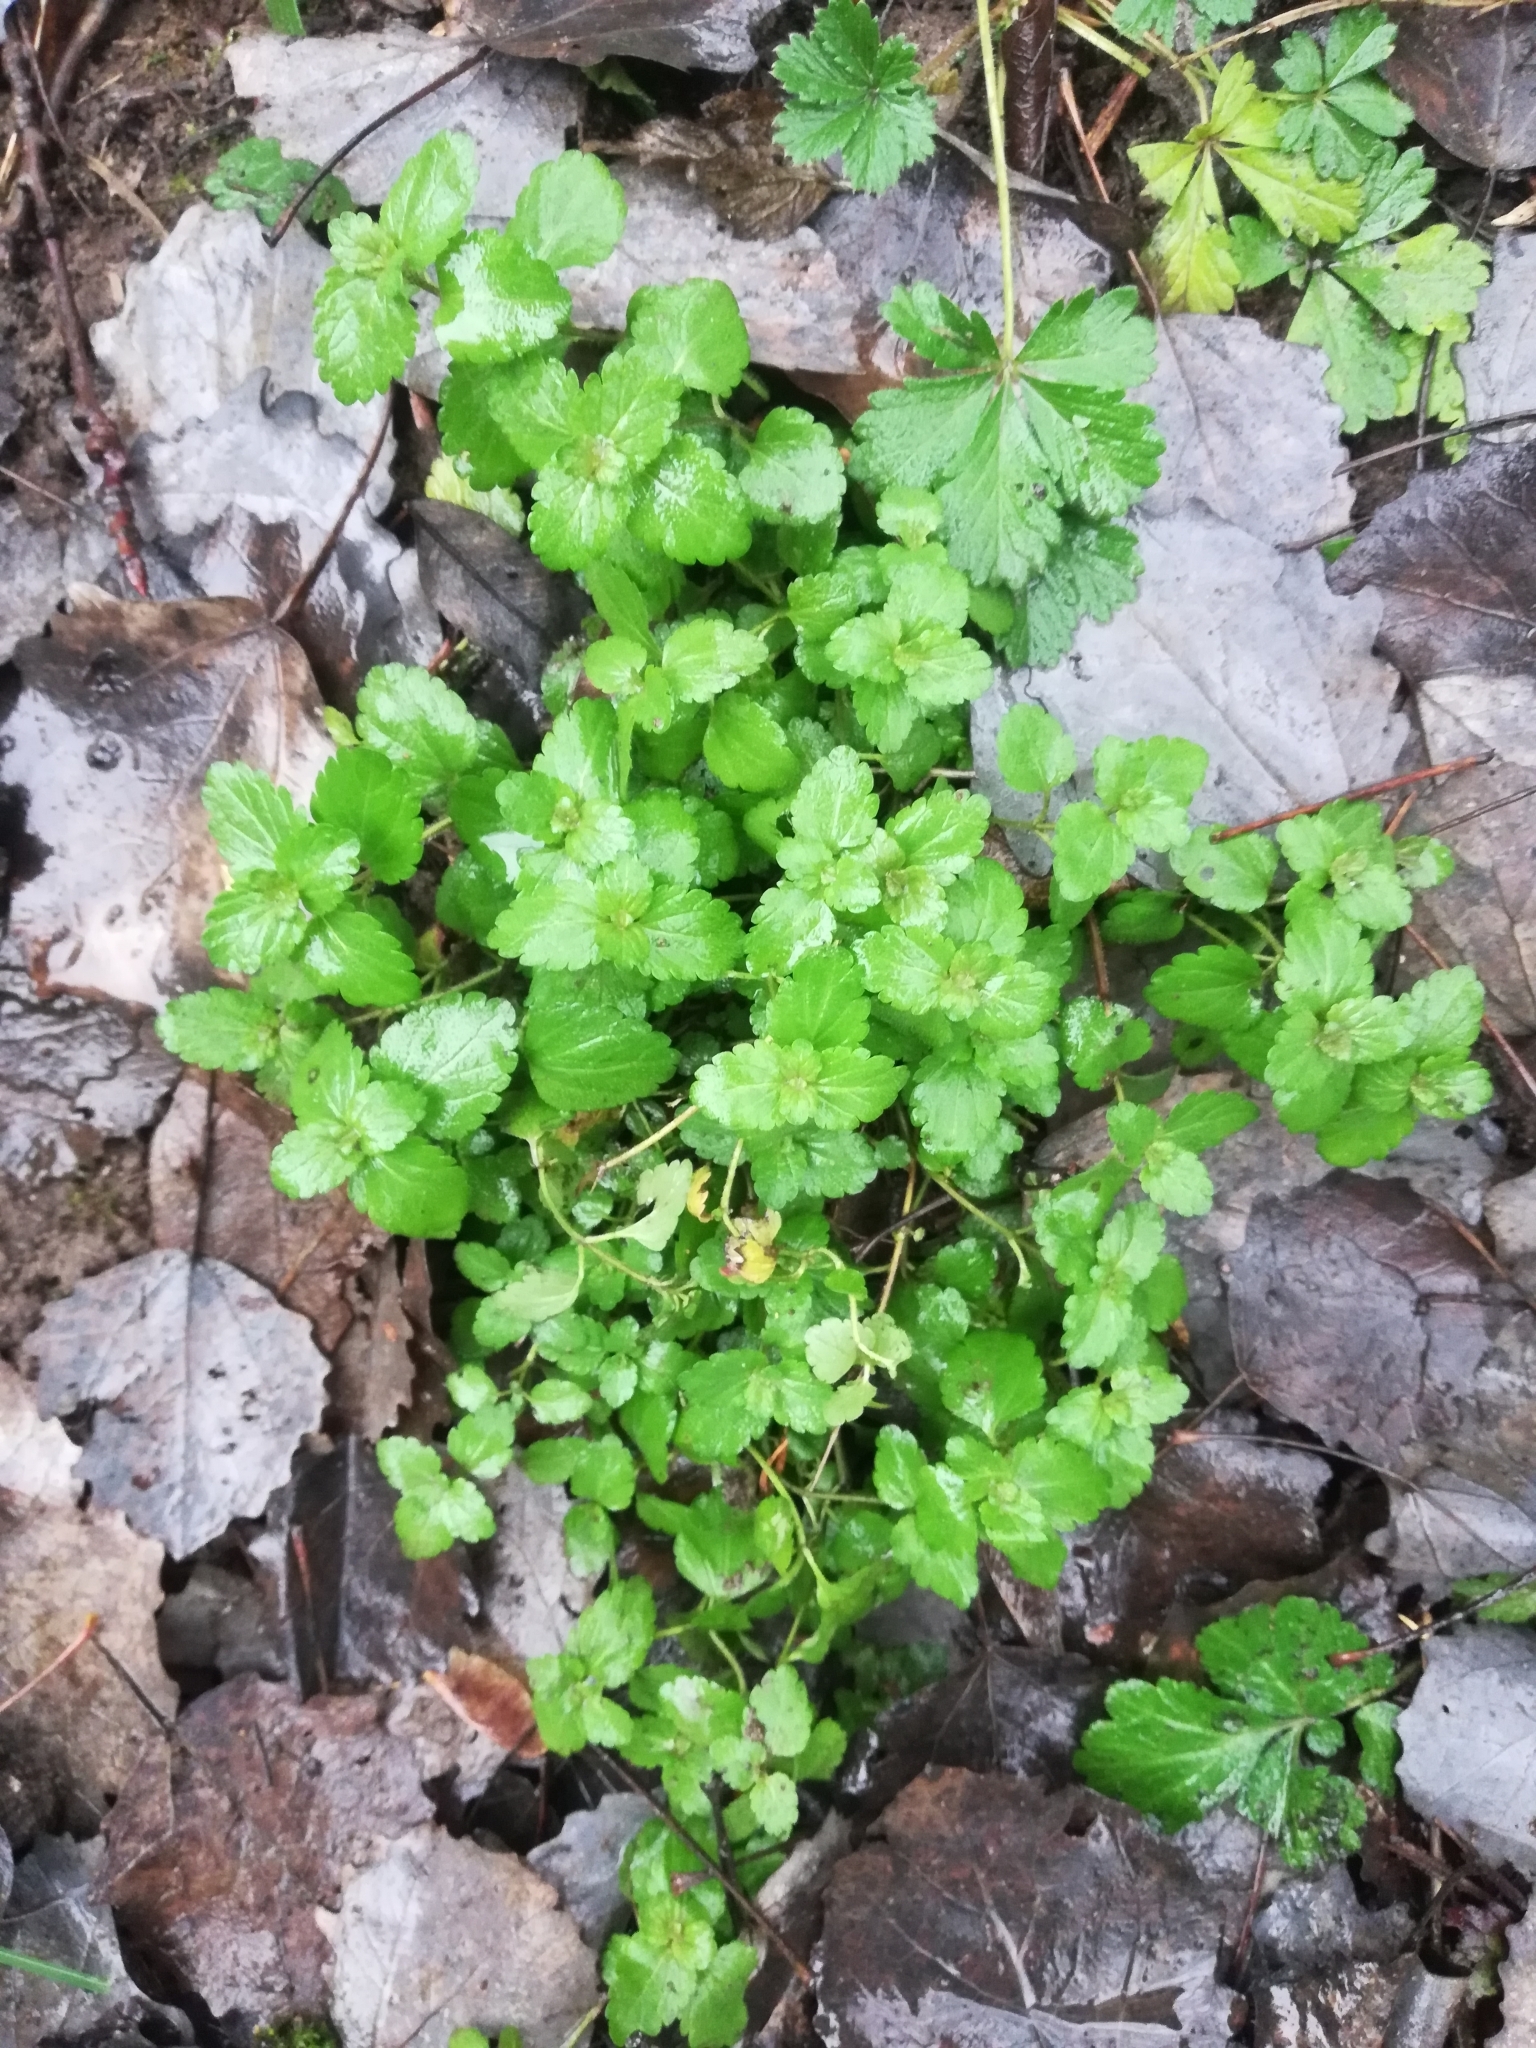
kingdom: Plantae
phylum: Tracheophyta
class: Magnoliopsida
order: Lamiales
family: Plantaginaceae
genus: Veronica
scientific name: Veronica chamaedrys
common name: Germander speedwell
